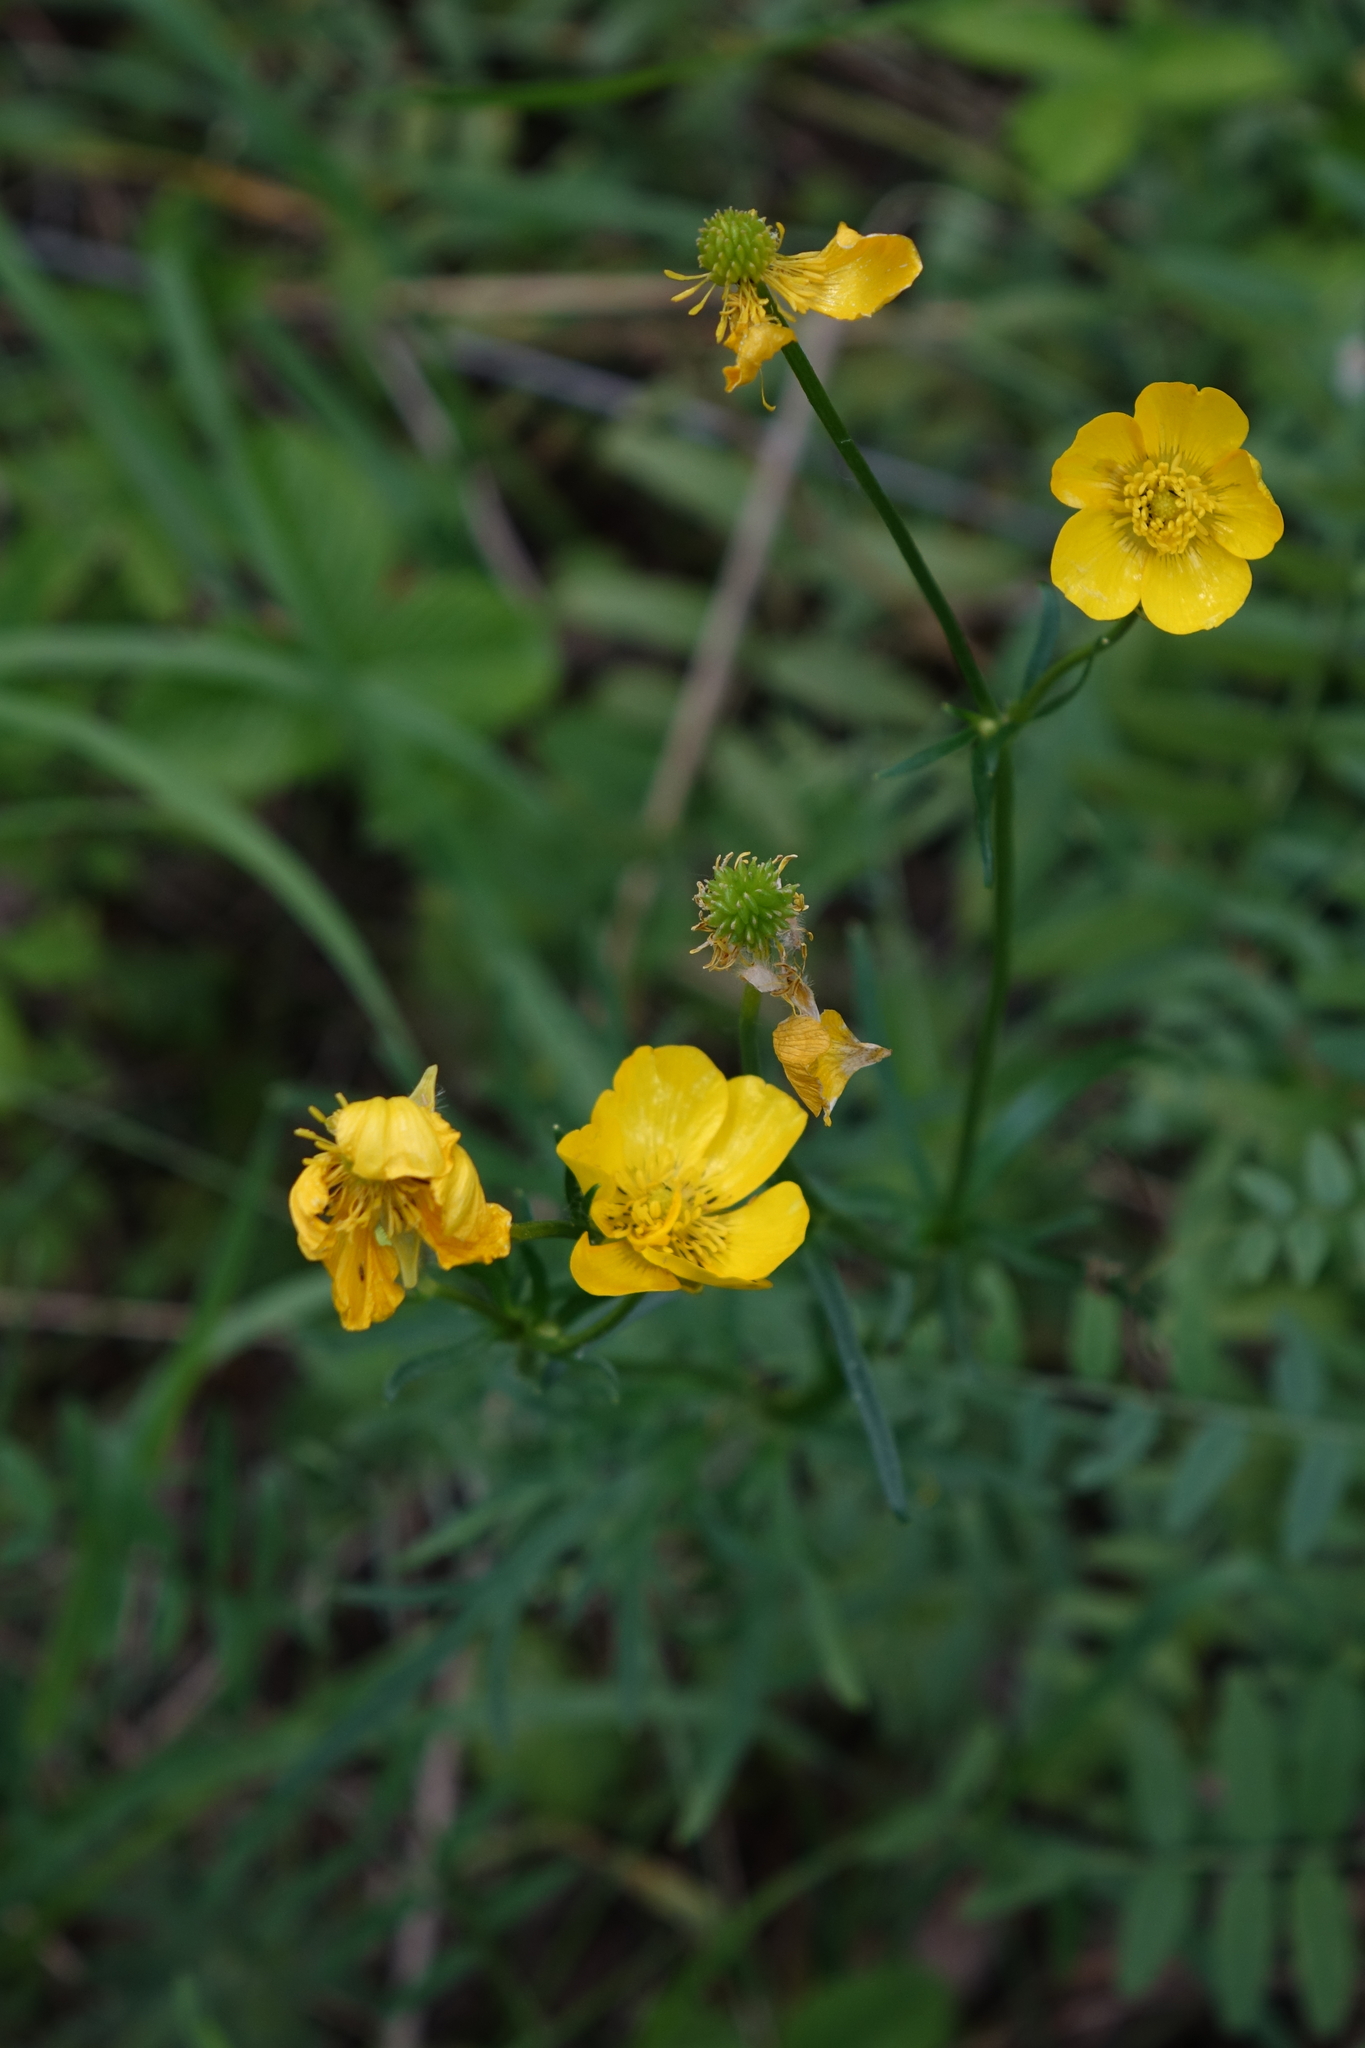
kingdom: Plantae
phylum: Tracheophyta
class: Magnoliopsida
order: Ranunculales
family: Ranunculaceae
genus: Ranunculus
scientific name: Ranunculus polyanthemos
